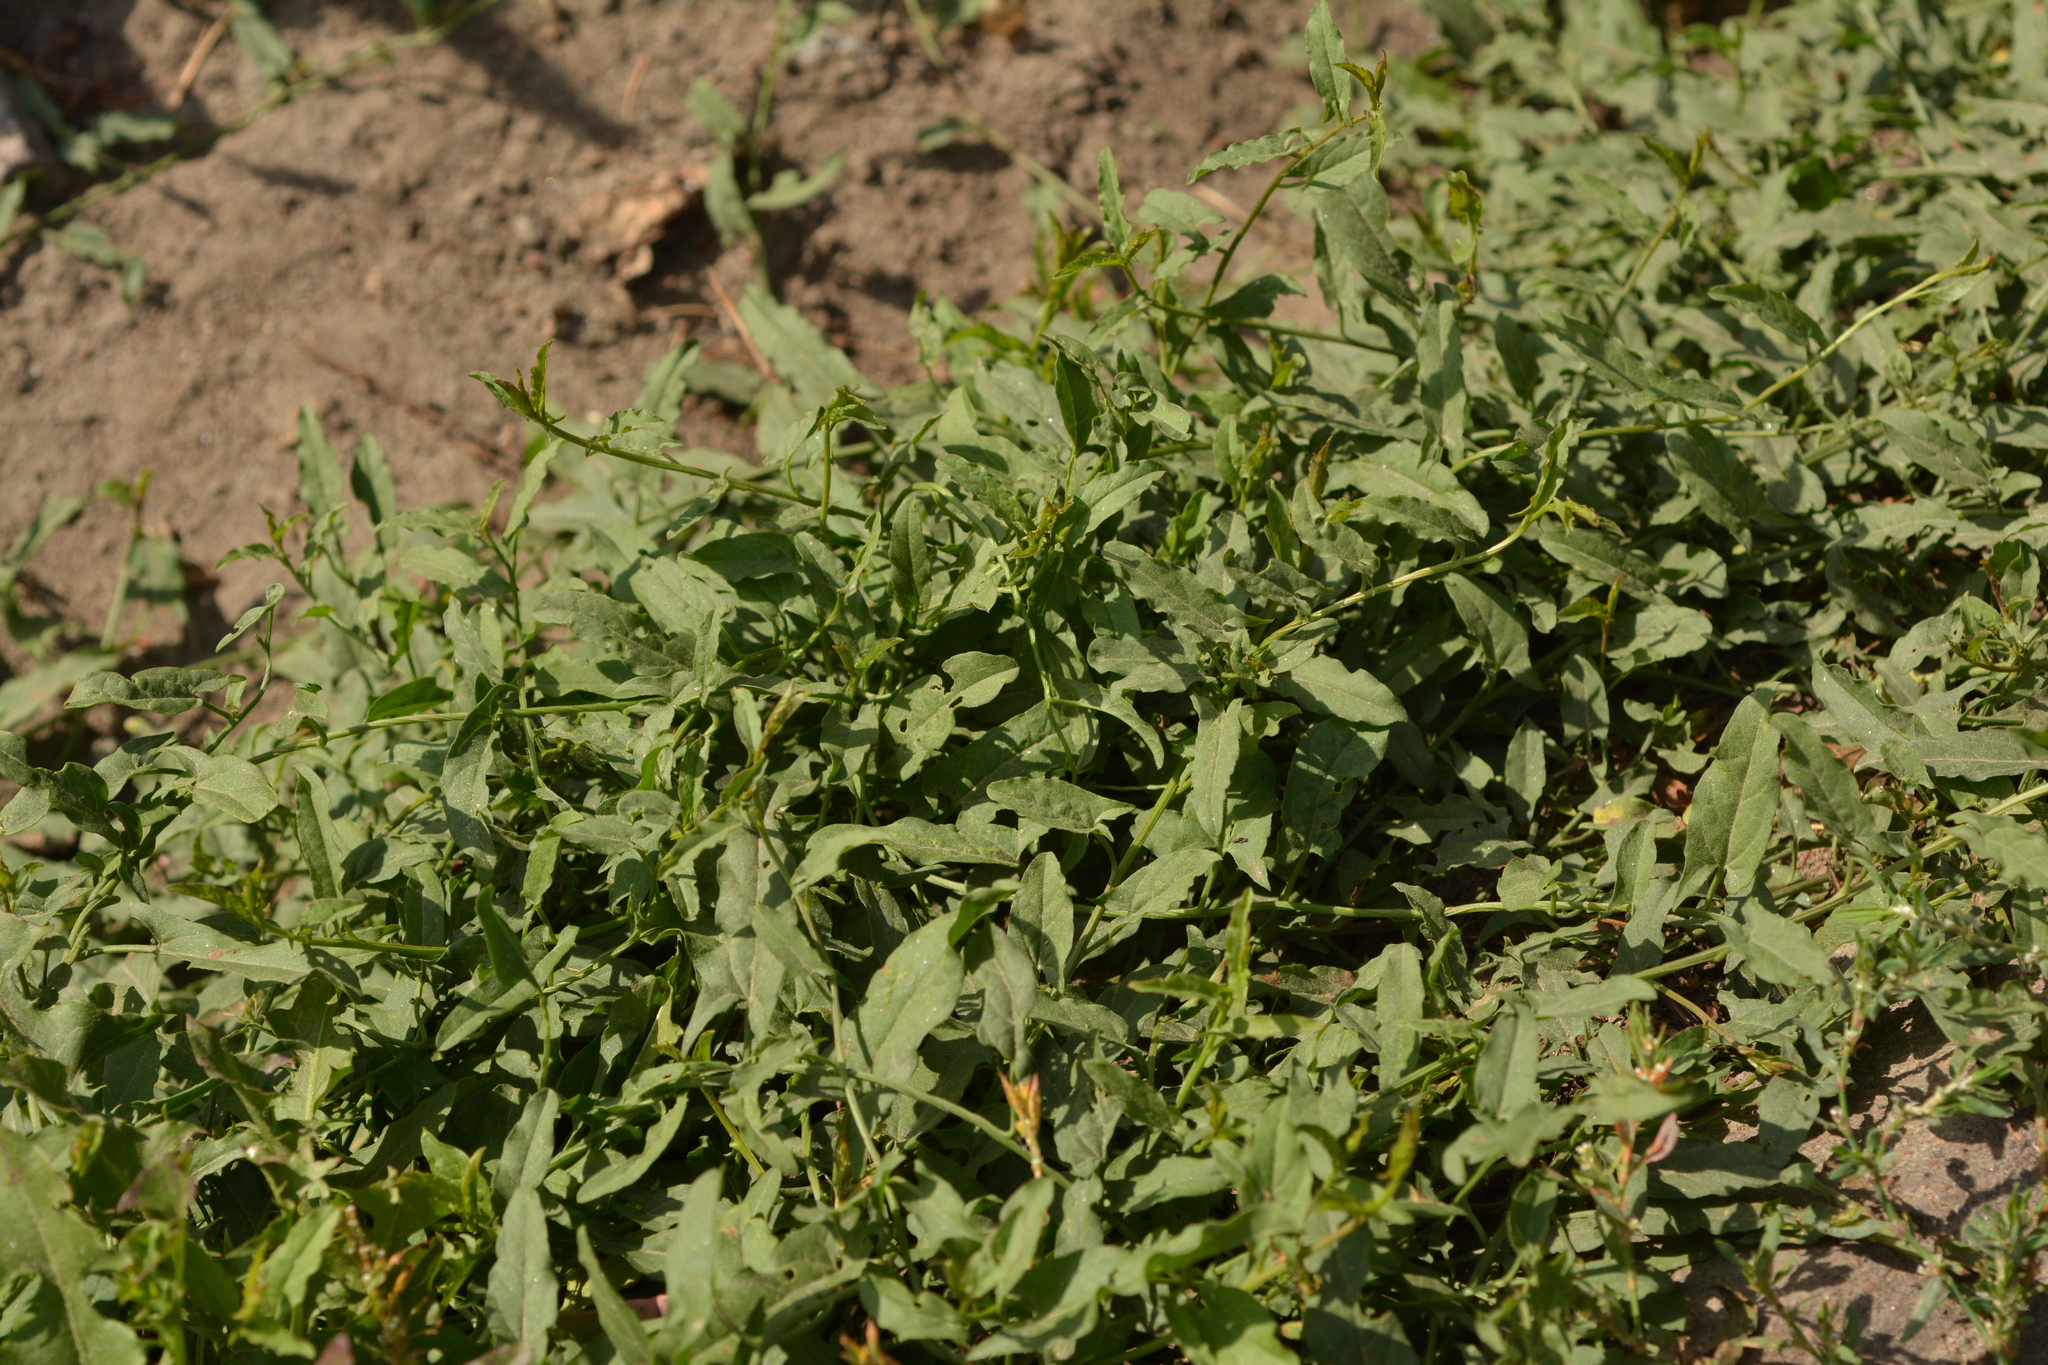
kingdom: Plantae
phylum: Tracheophyta
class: Magnoliopsida
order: Solanales
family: Convolvulaceae
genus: Convolvulus
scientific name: Convolvulus arvensis
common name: Field bindweed
